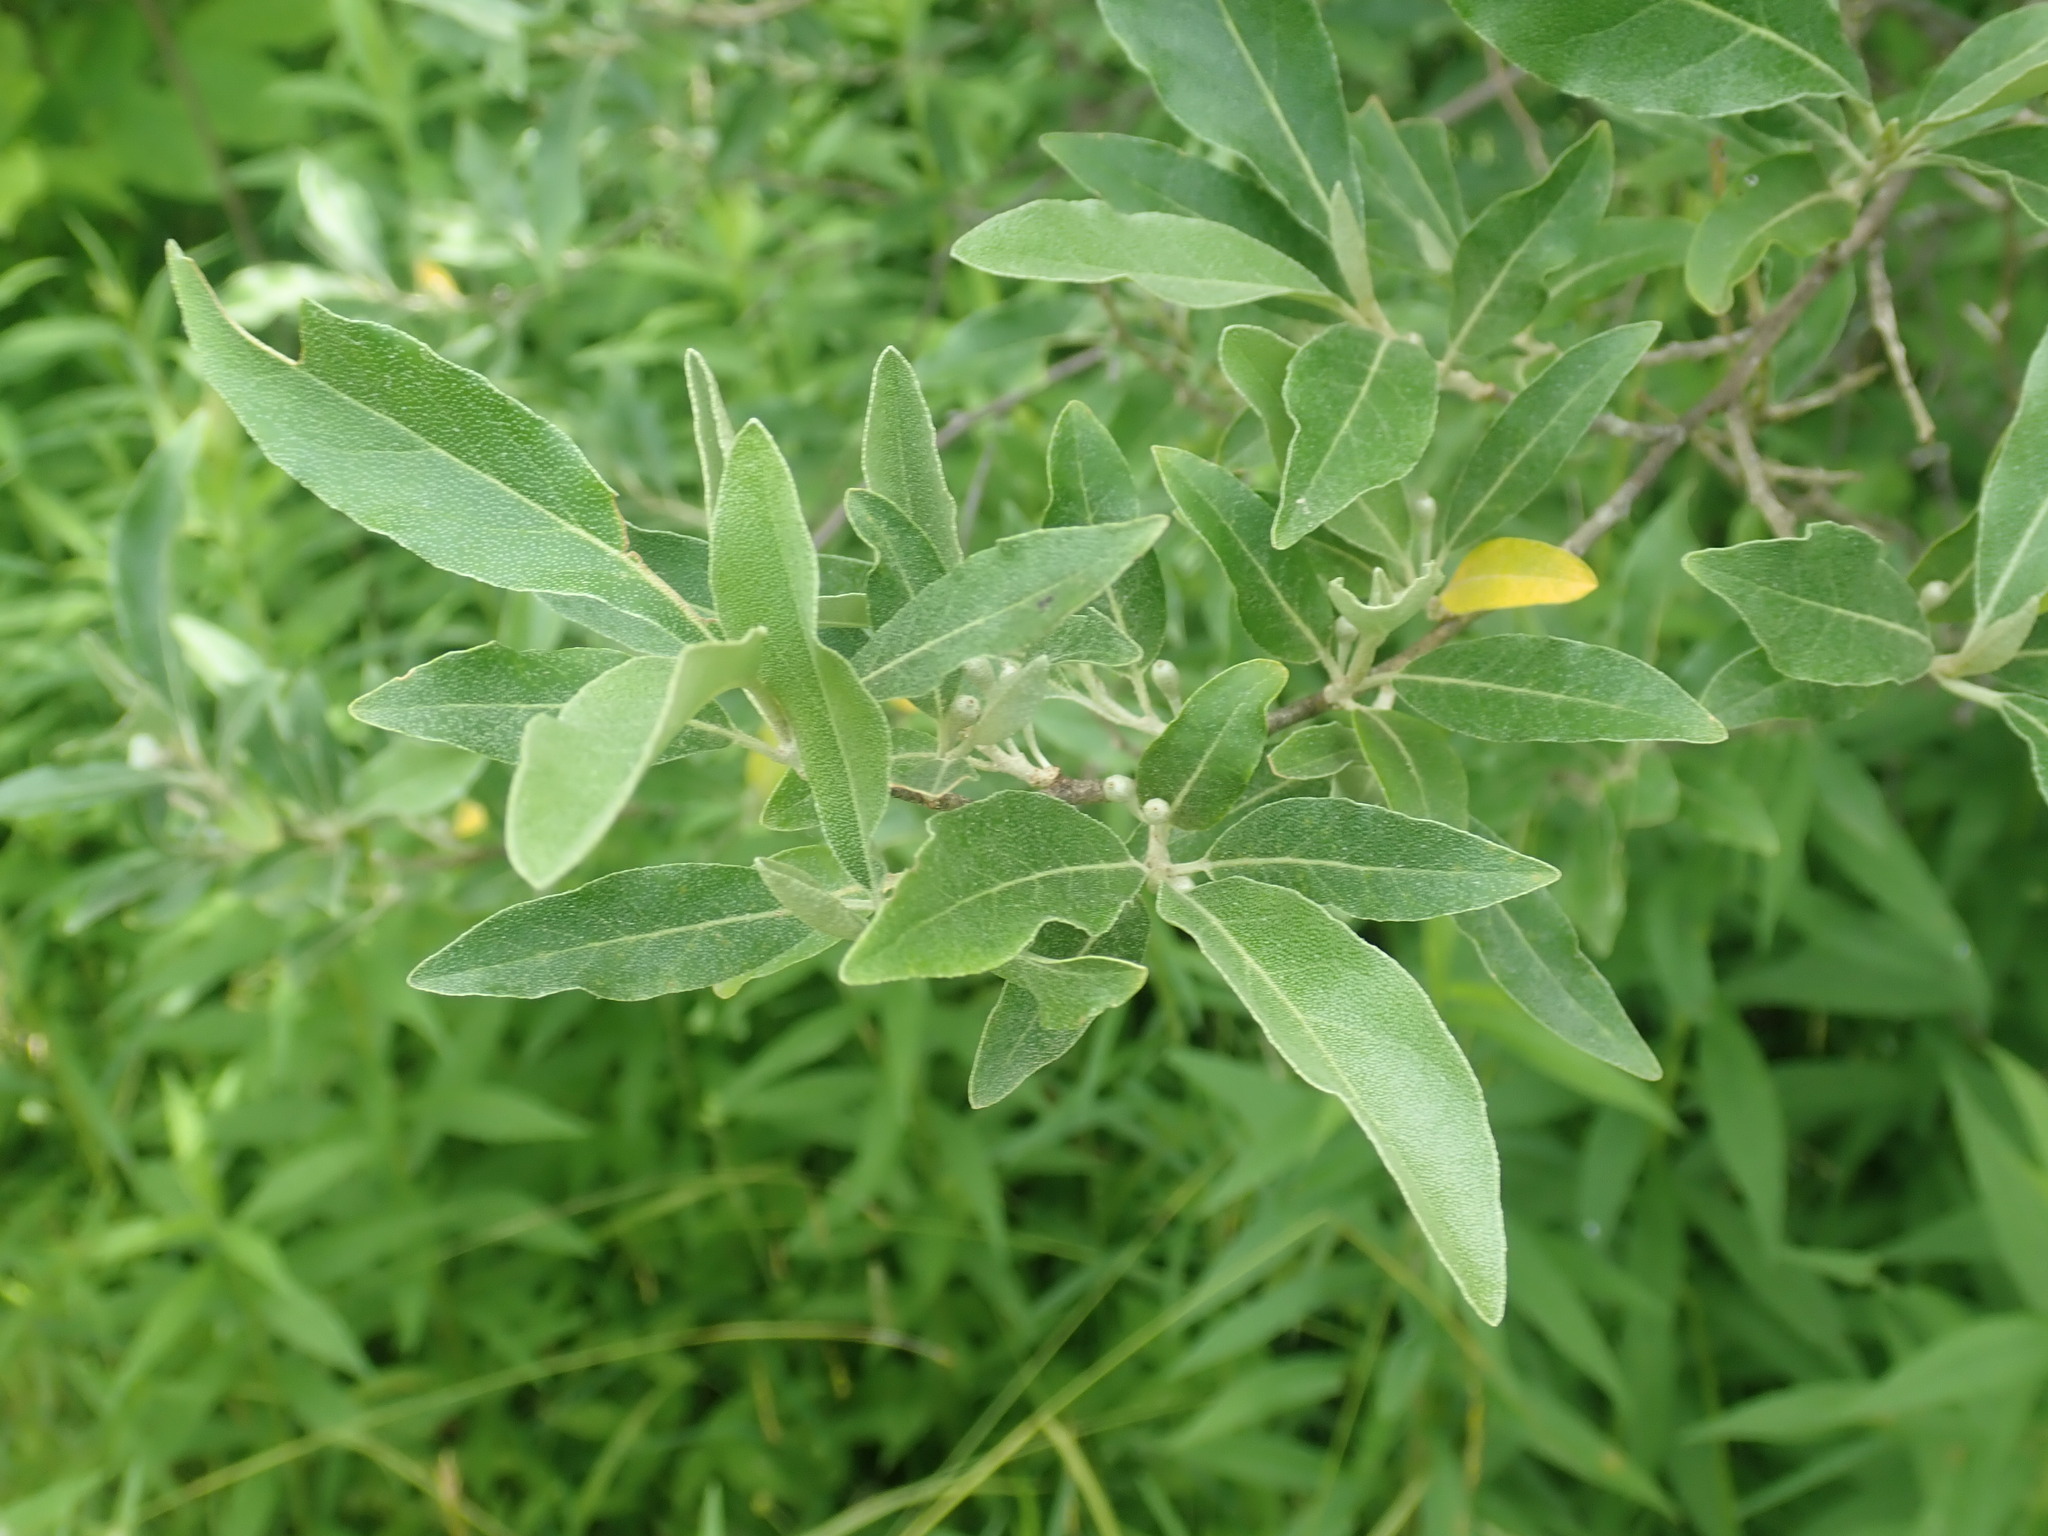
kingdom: Plantae
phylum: Tracheophyta
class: Magnoliopsida
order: Rosales
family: Elaeagnaceae
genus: Elaeagnus
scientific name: Elaeagnus umbellata
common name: Autumn olive
